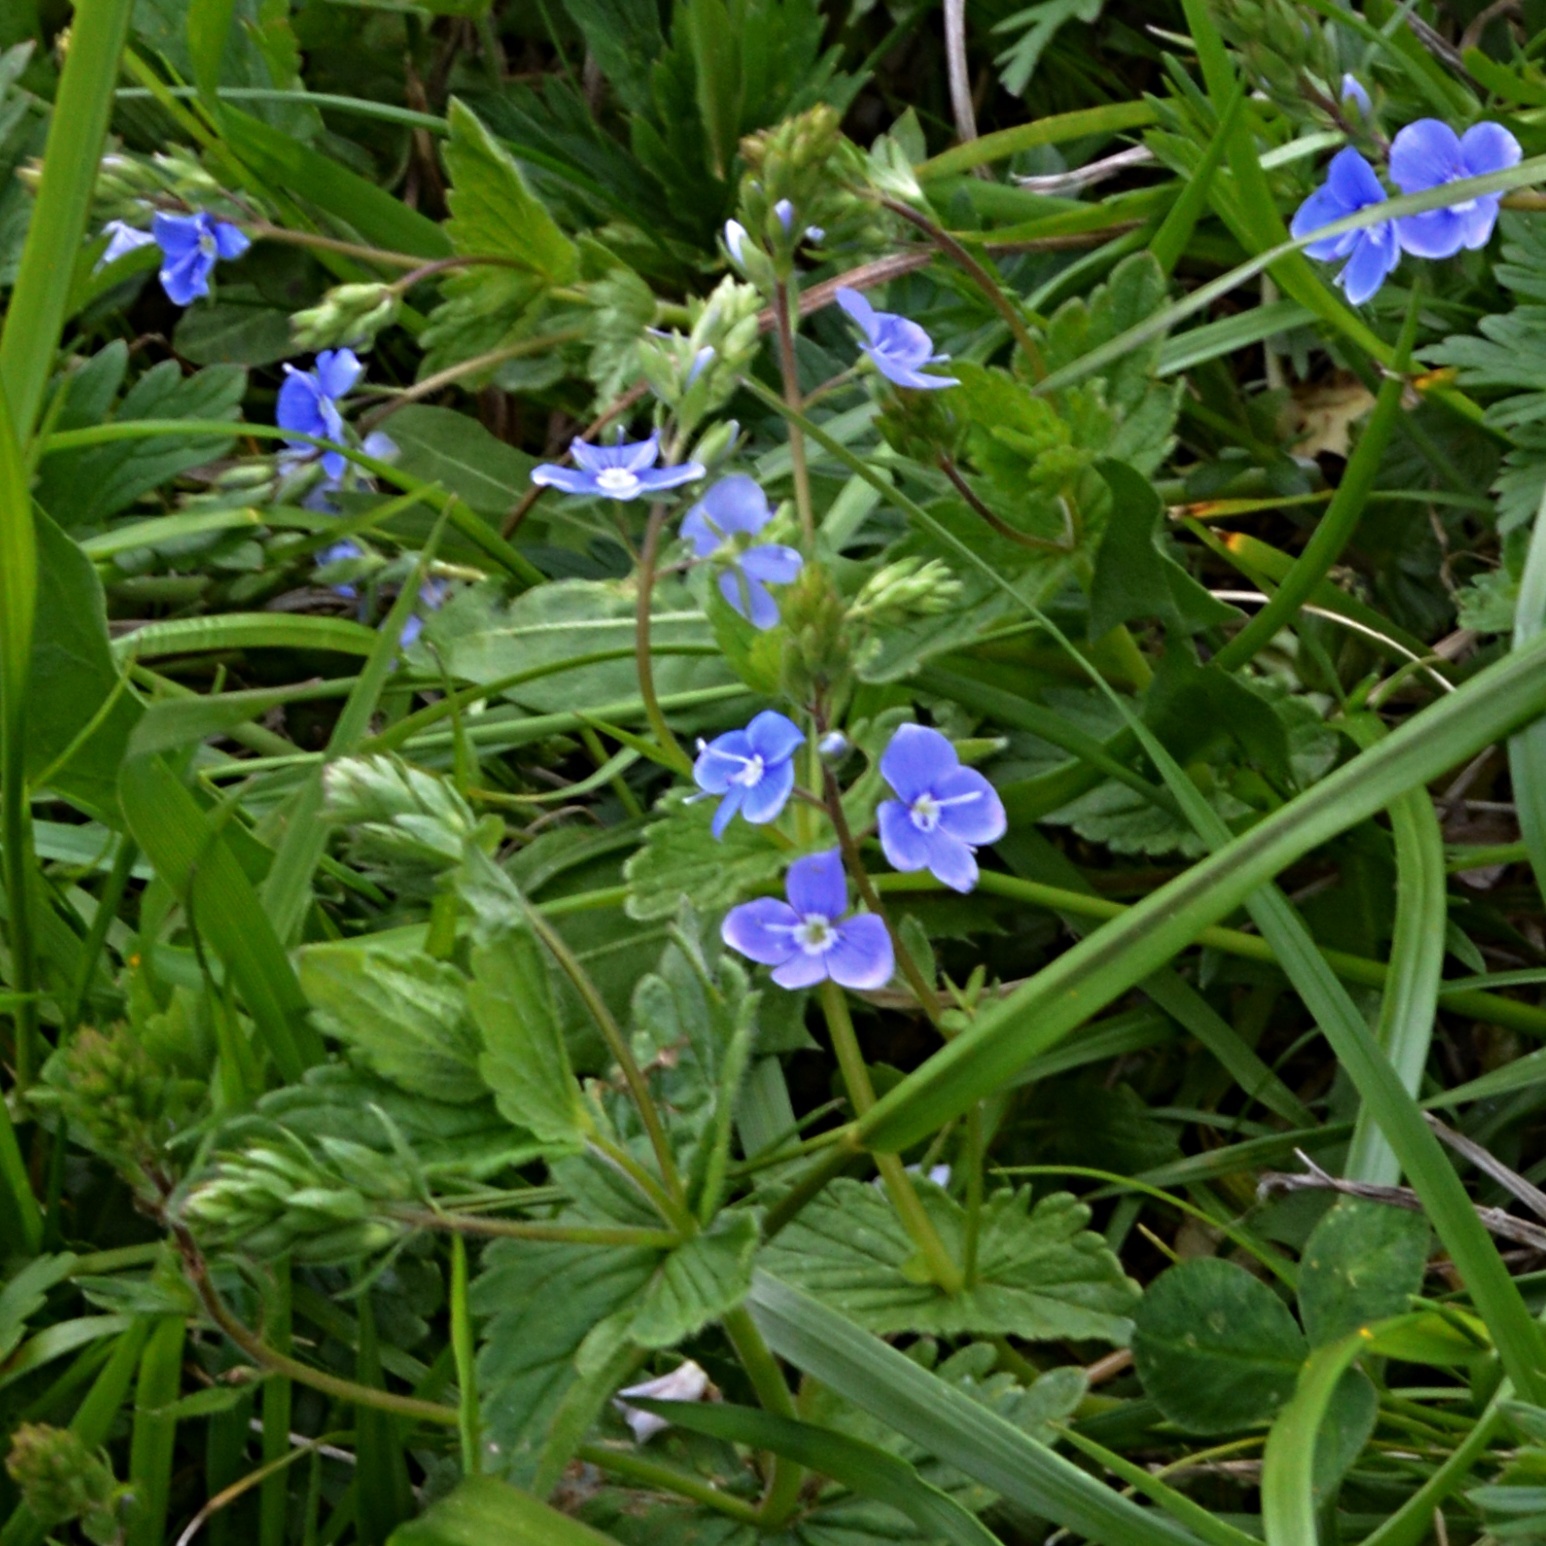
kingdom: Plantae
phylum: Tracheophyta
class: Magnoliopsida
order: Lamiales
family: Plantaginaceae
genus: Veronica
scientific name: Veronica chamaedrys
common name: Germander speedwell
